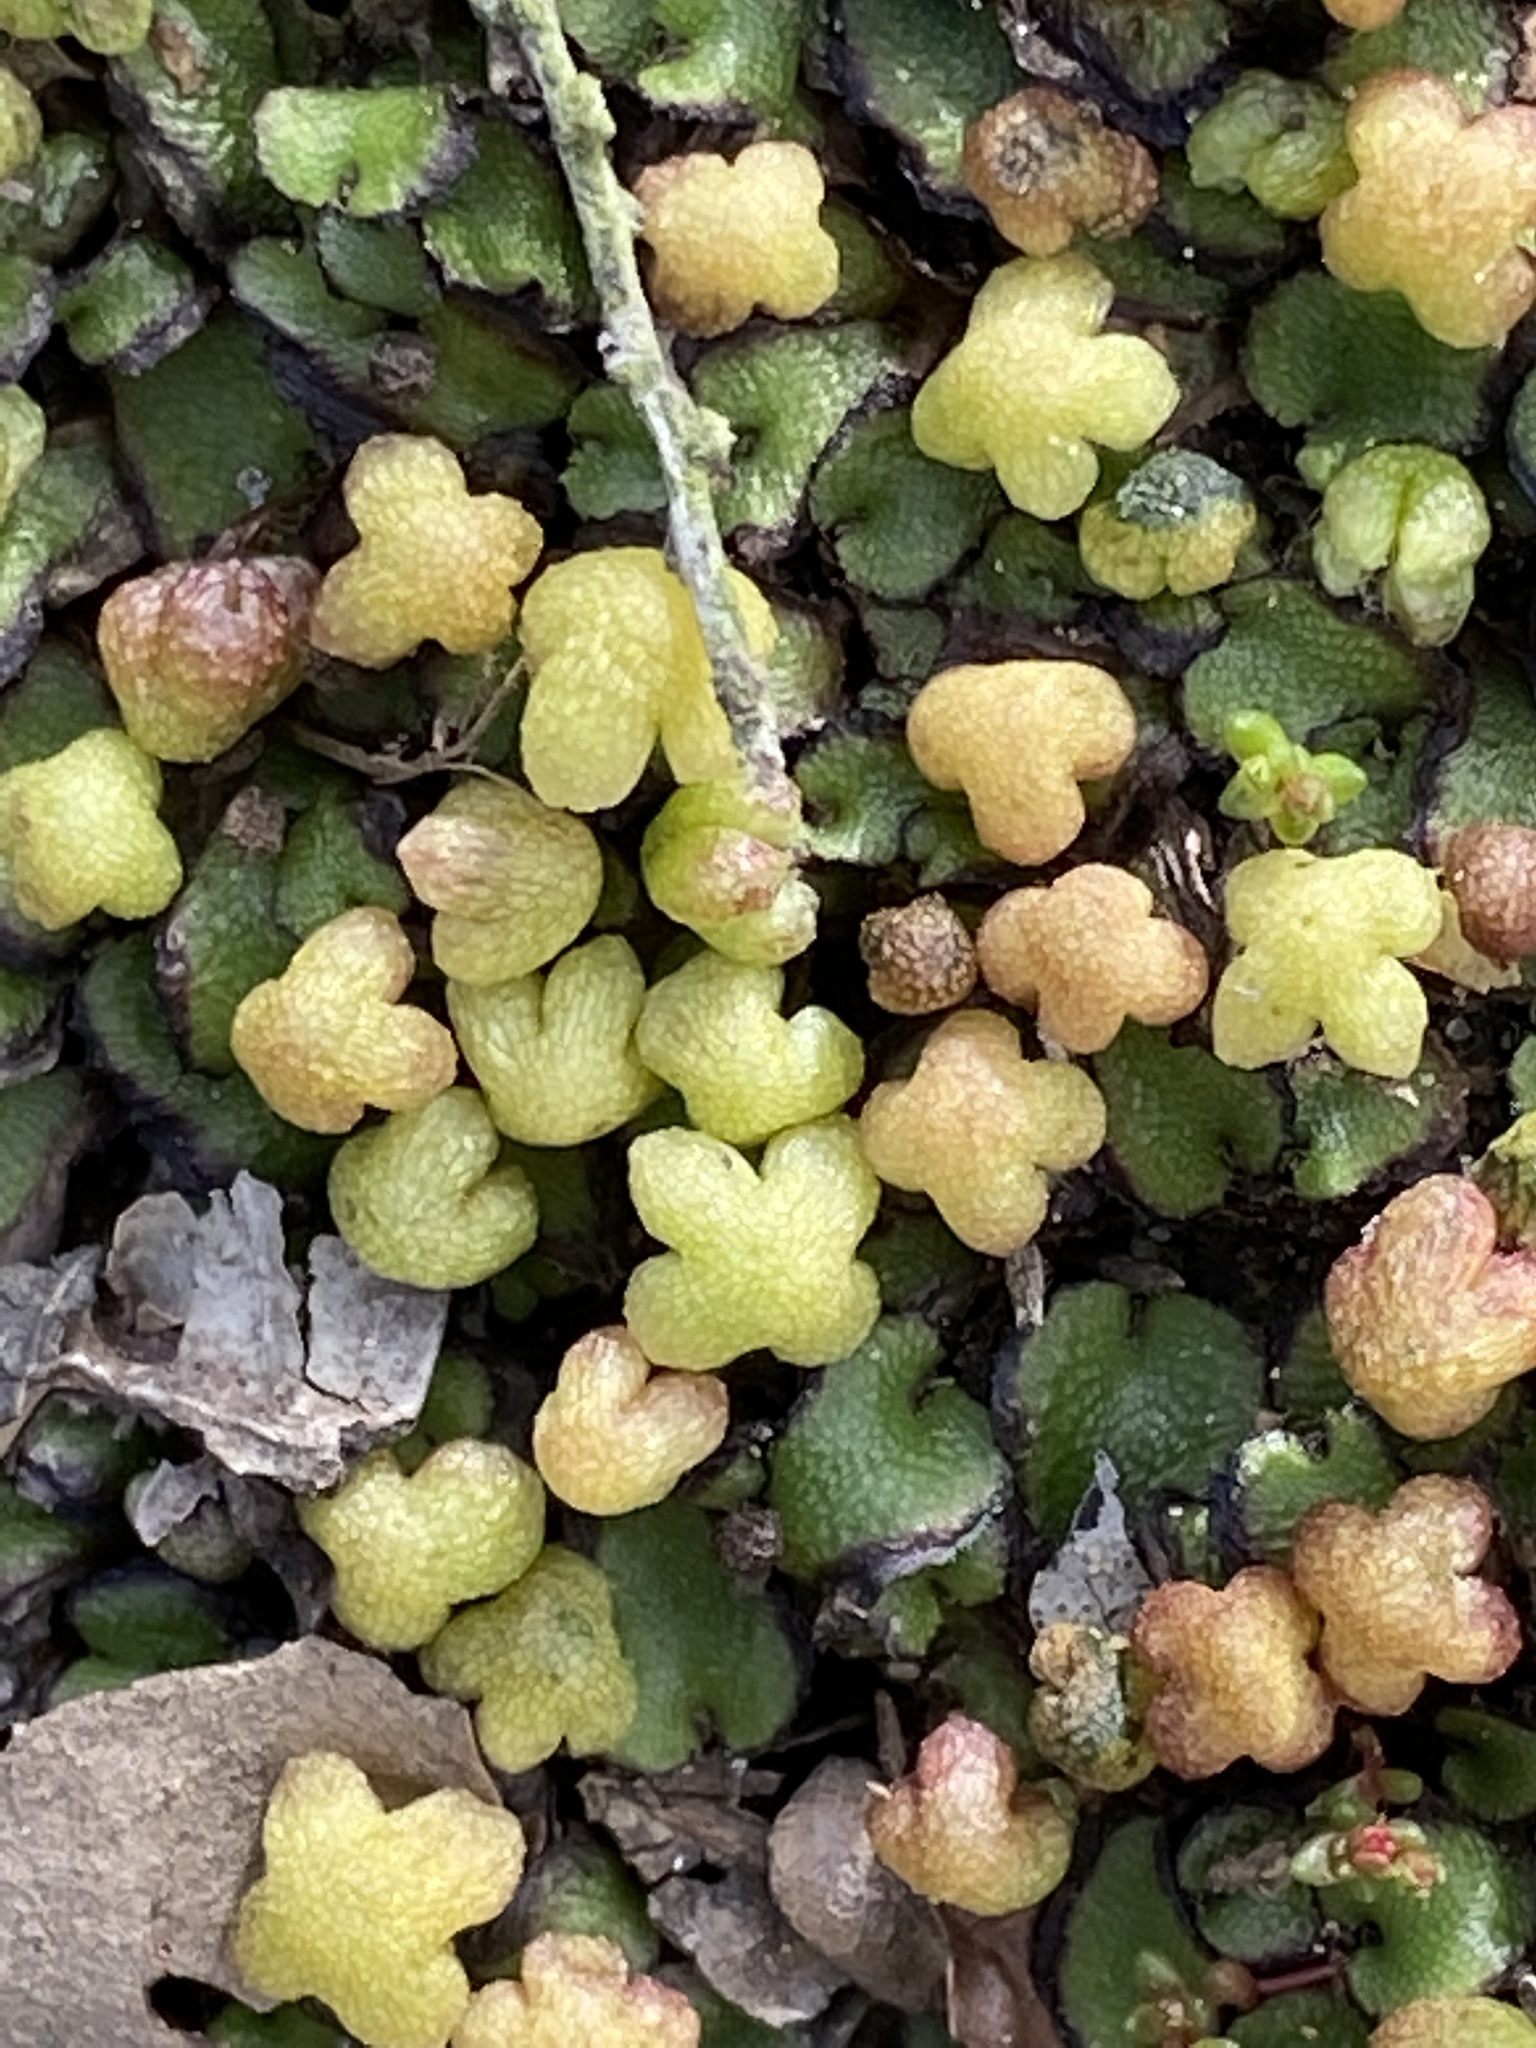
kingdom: Plantae
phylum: Marchantiophyta
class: Marchantiopsida
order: Marchantiales
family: Aytoniaceae
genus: Asterella
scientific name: Asterella californica
